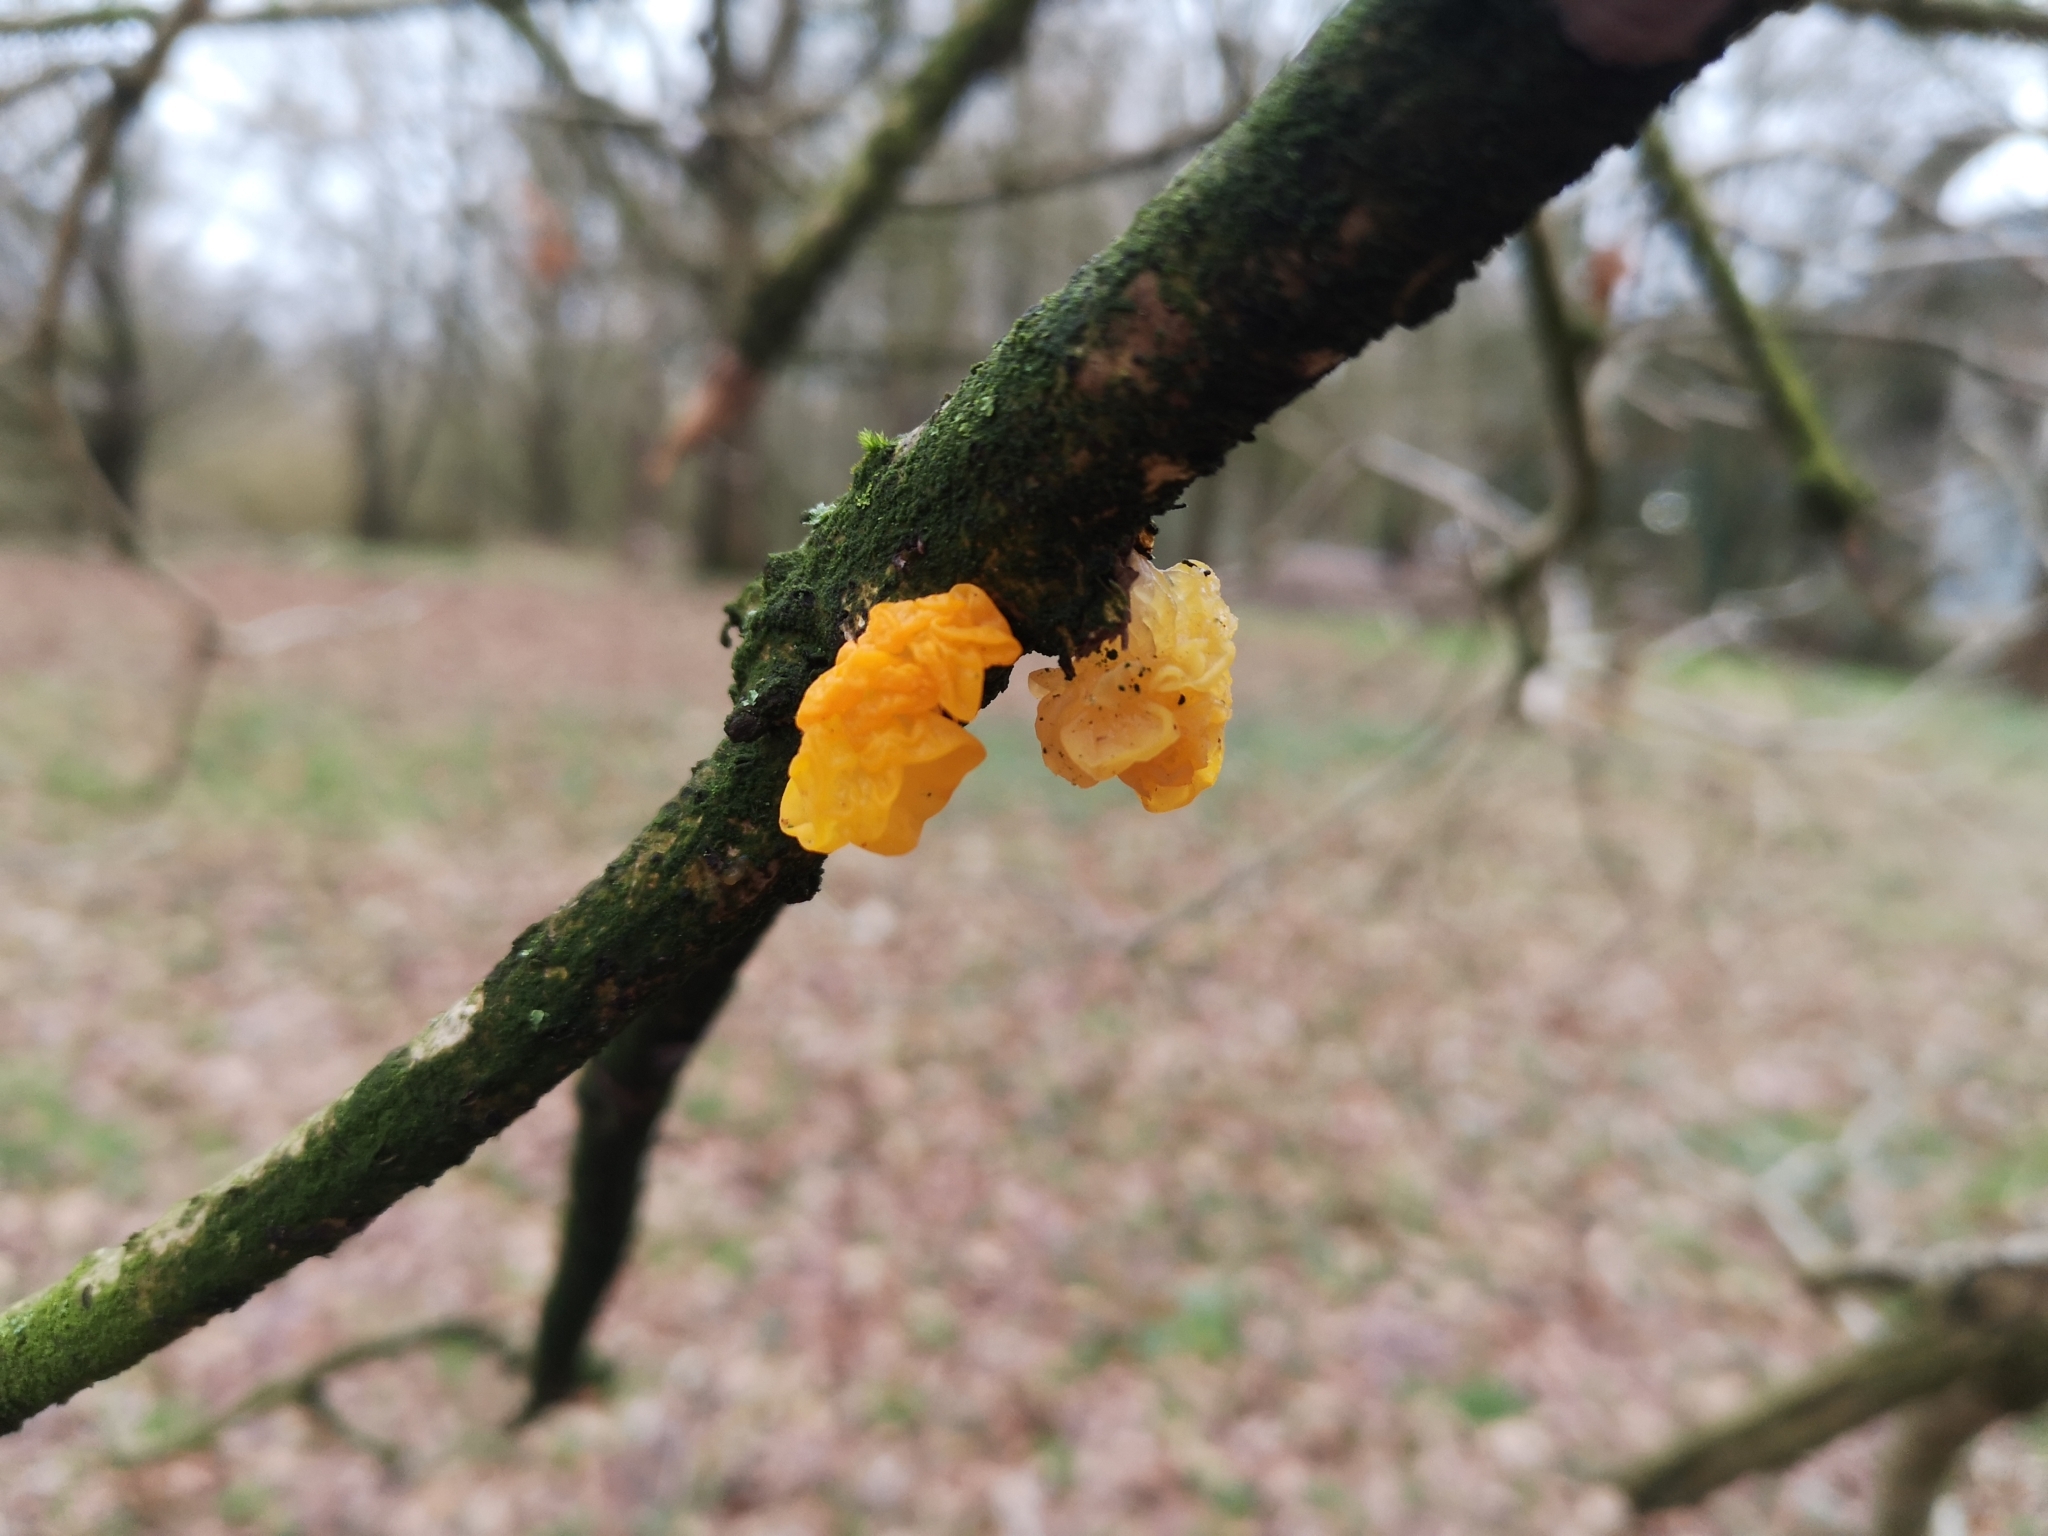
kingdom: Fungi
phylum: Basidiomycota
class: Tremellomycetes
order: Tremellales
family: Tremellaceae
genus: Tremella
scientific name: Tremella mesenterica
